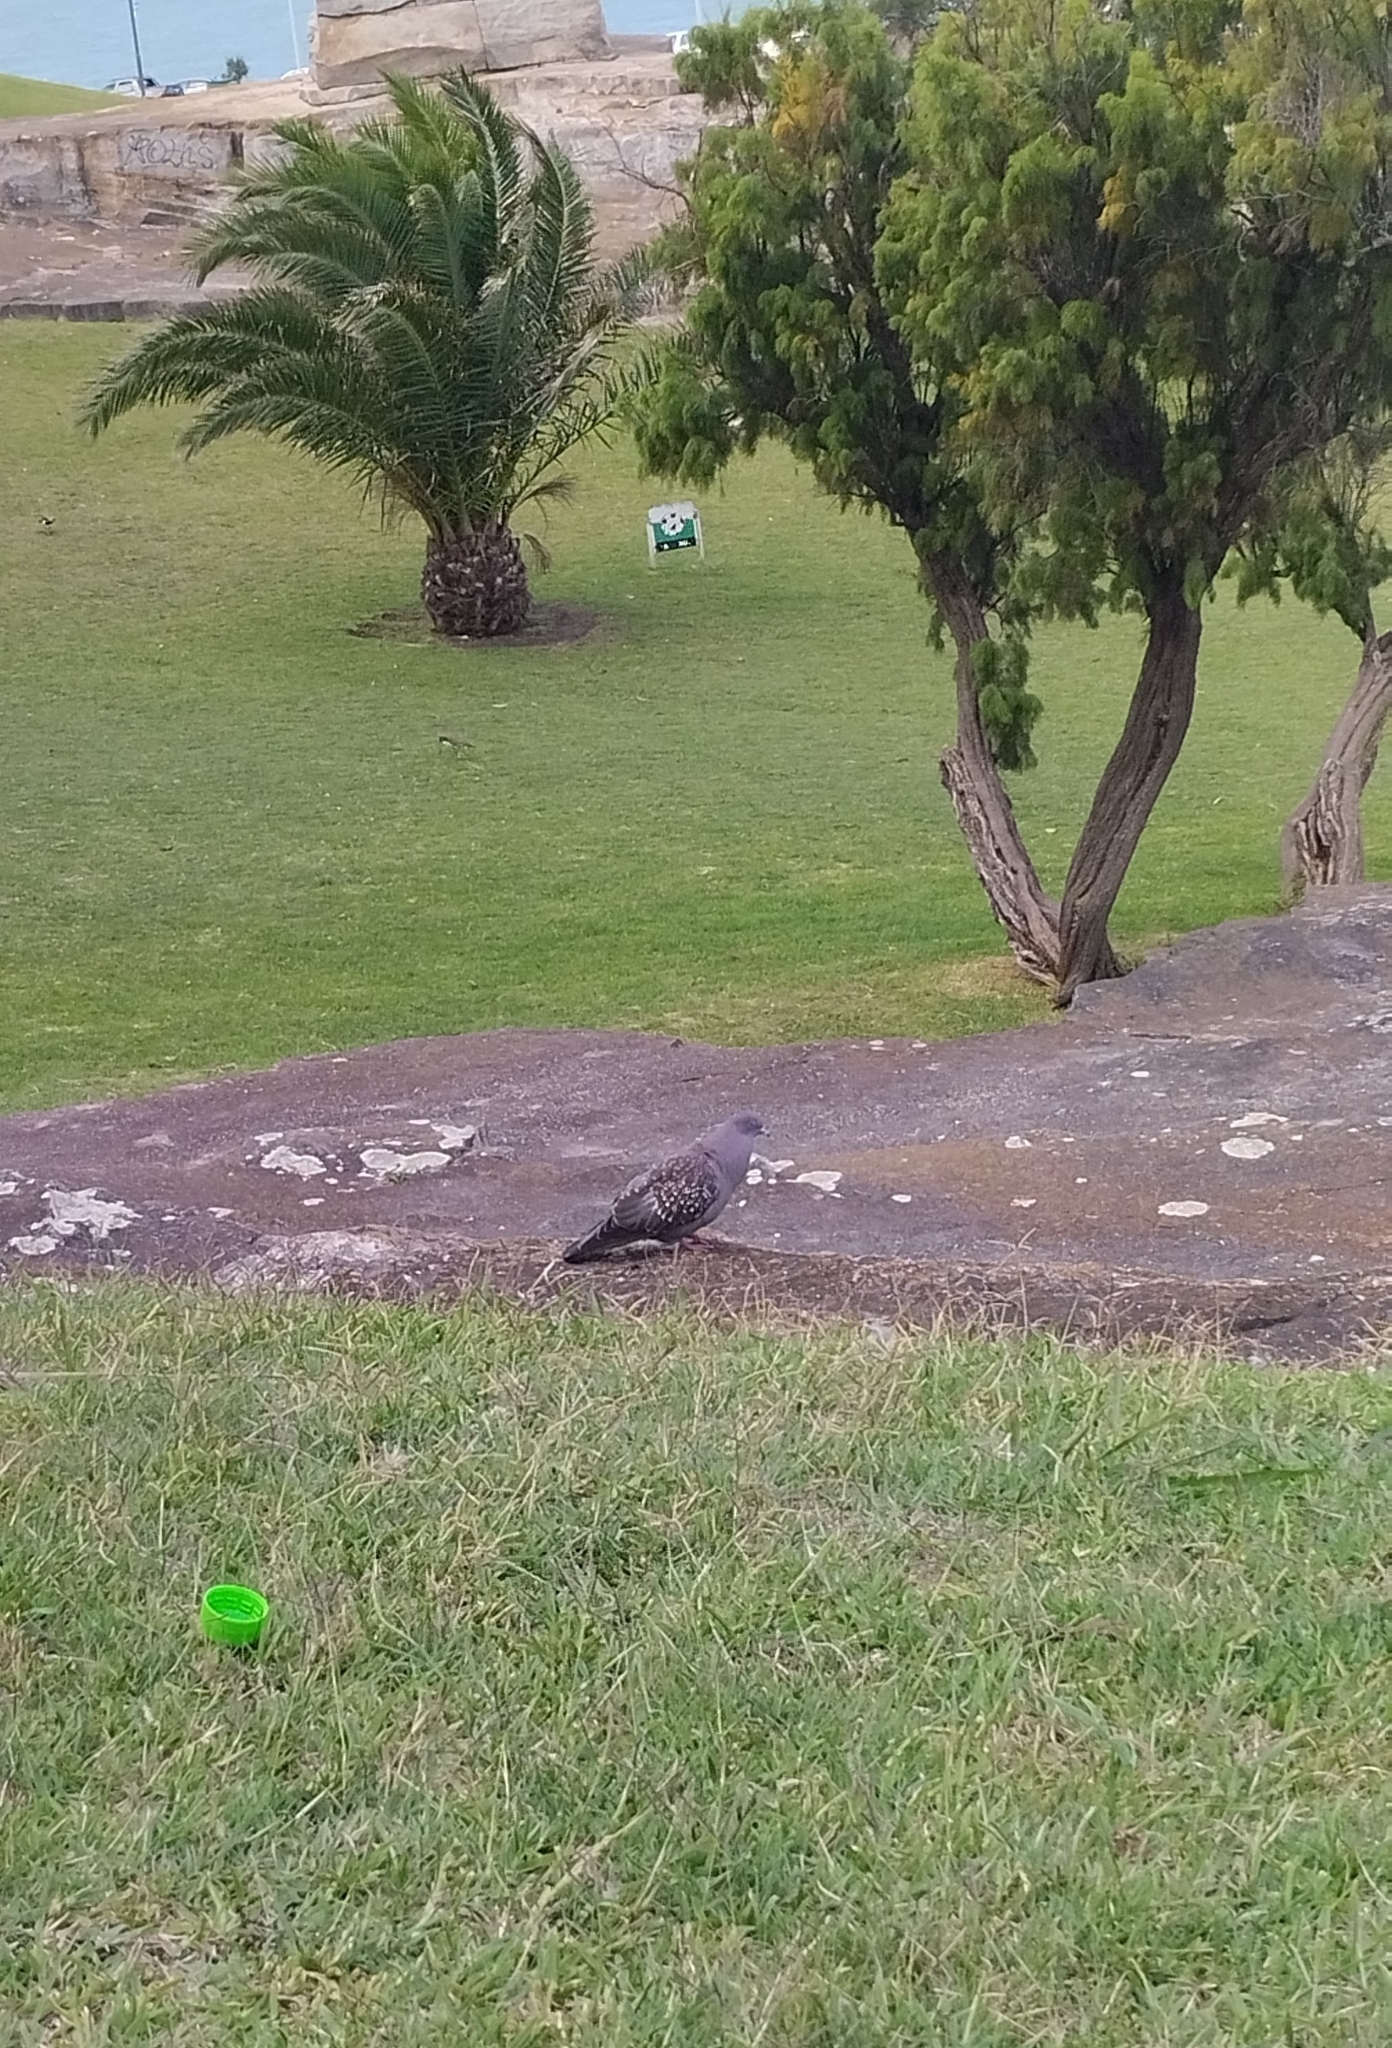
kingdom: Animalia
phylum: Chordata
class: Aves
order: Columbiformes
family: Columbidae
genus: Patagioenas
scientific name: Patagioenas maculosa
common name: Spot-winged pigeon
